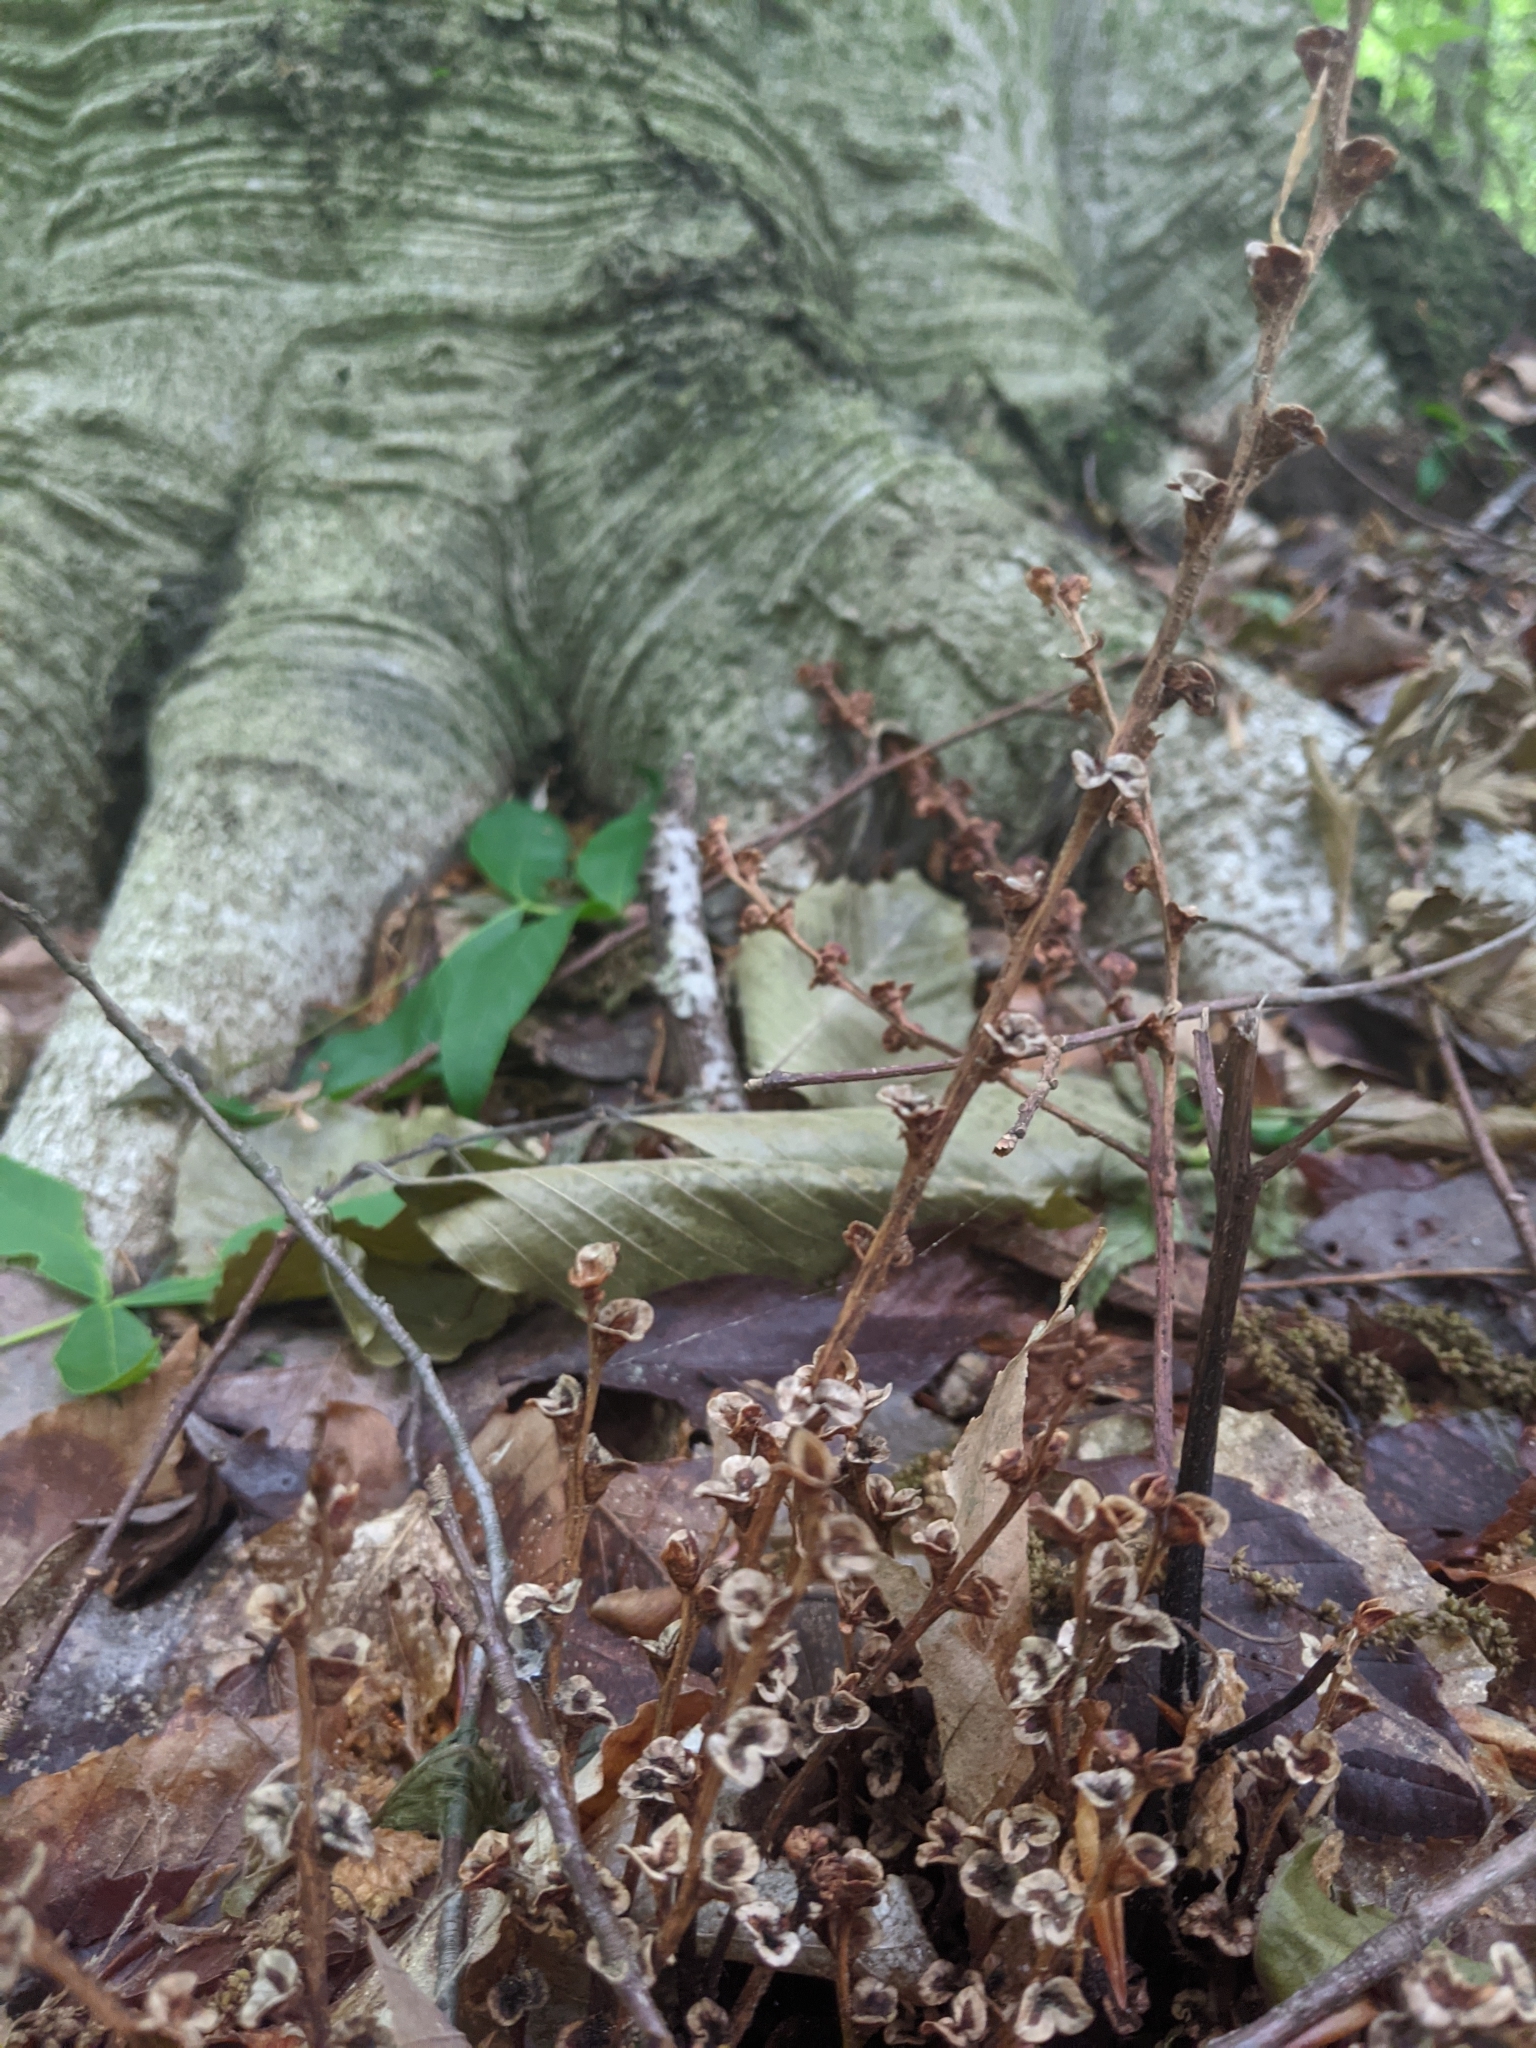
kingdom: Plantae
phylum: Tracheophyta
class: Magnoliopsida
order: Lamiales
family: Orobanchaceae
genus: Epifagus
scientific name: Epifagus virginiana
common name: Beechdrops
